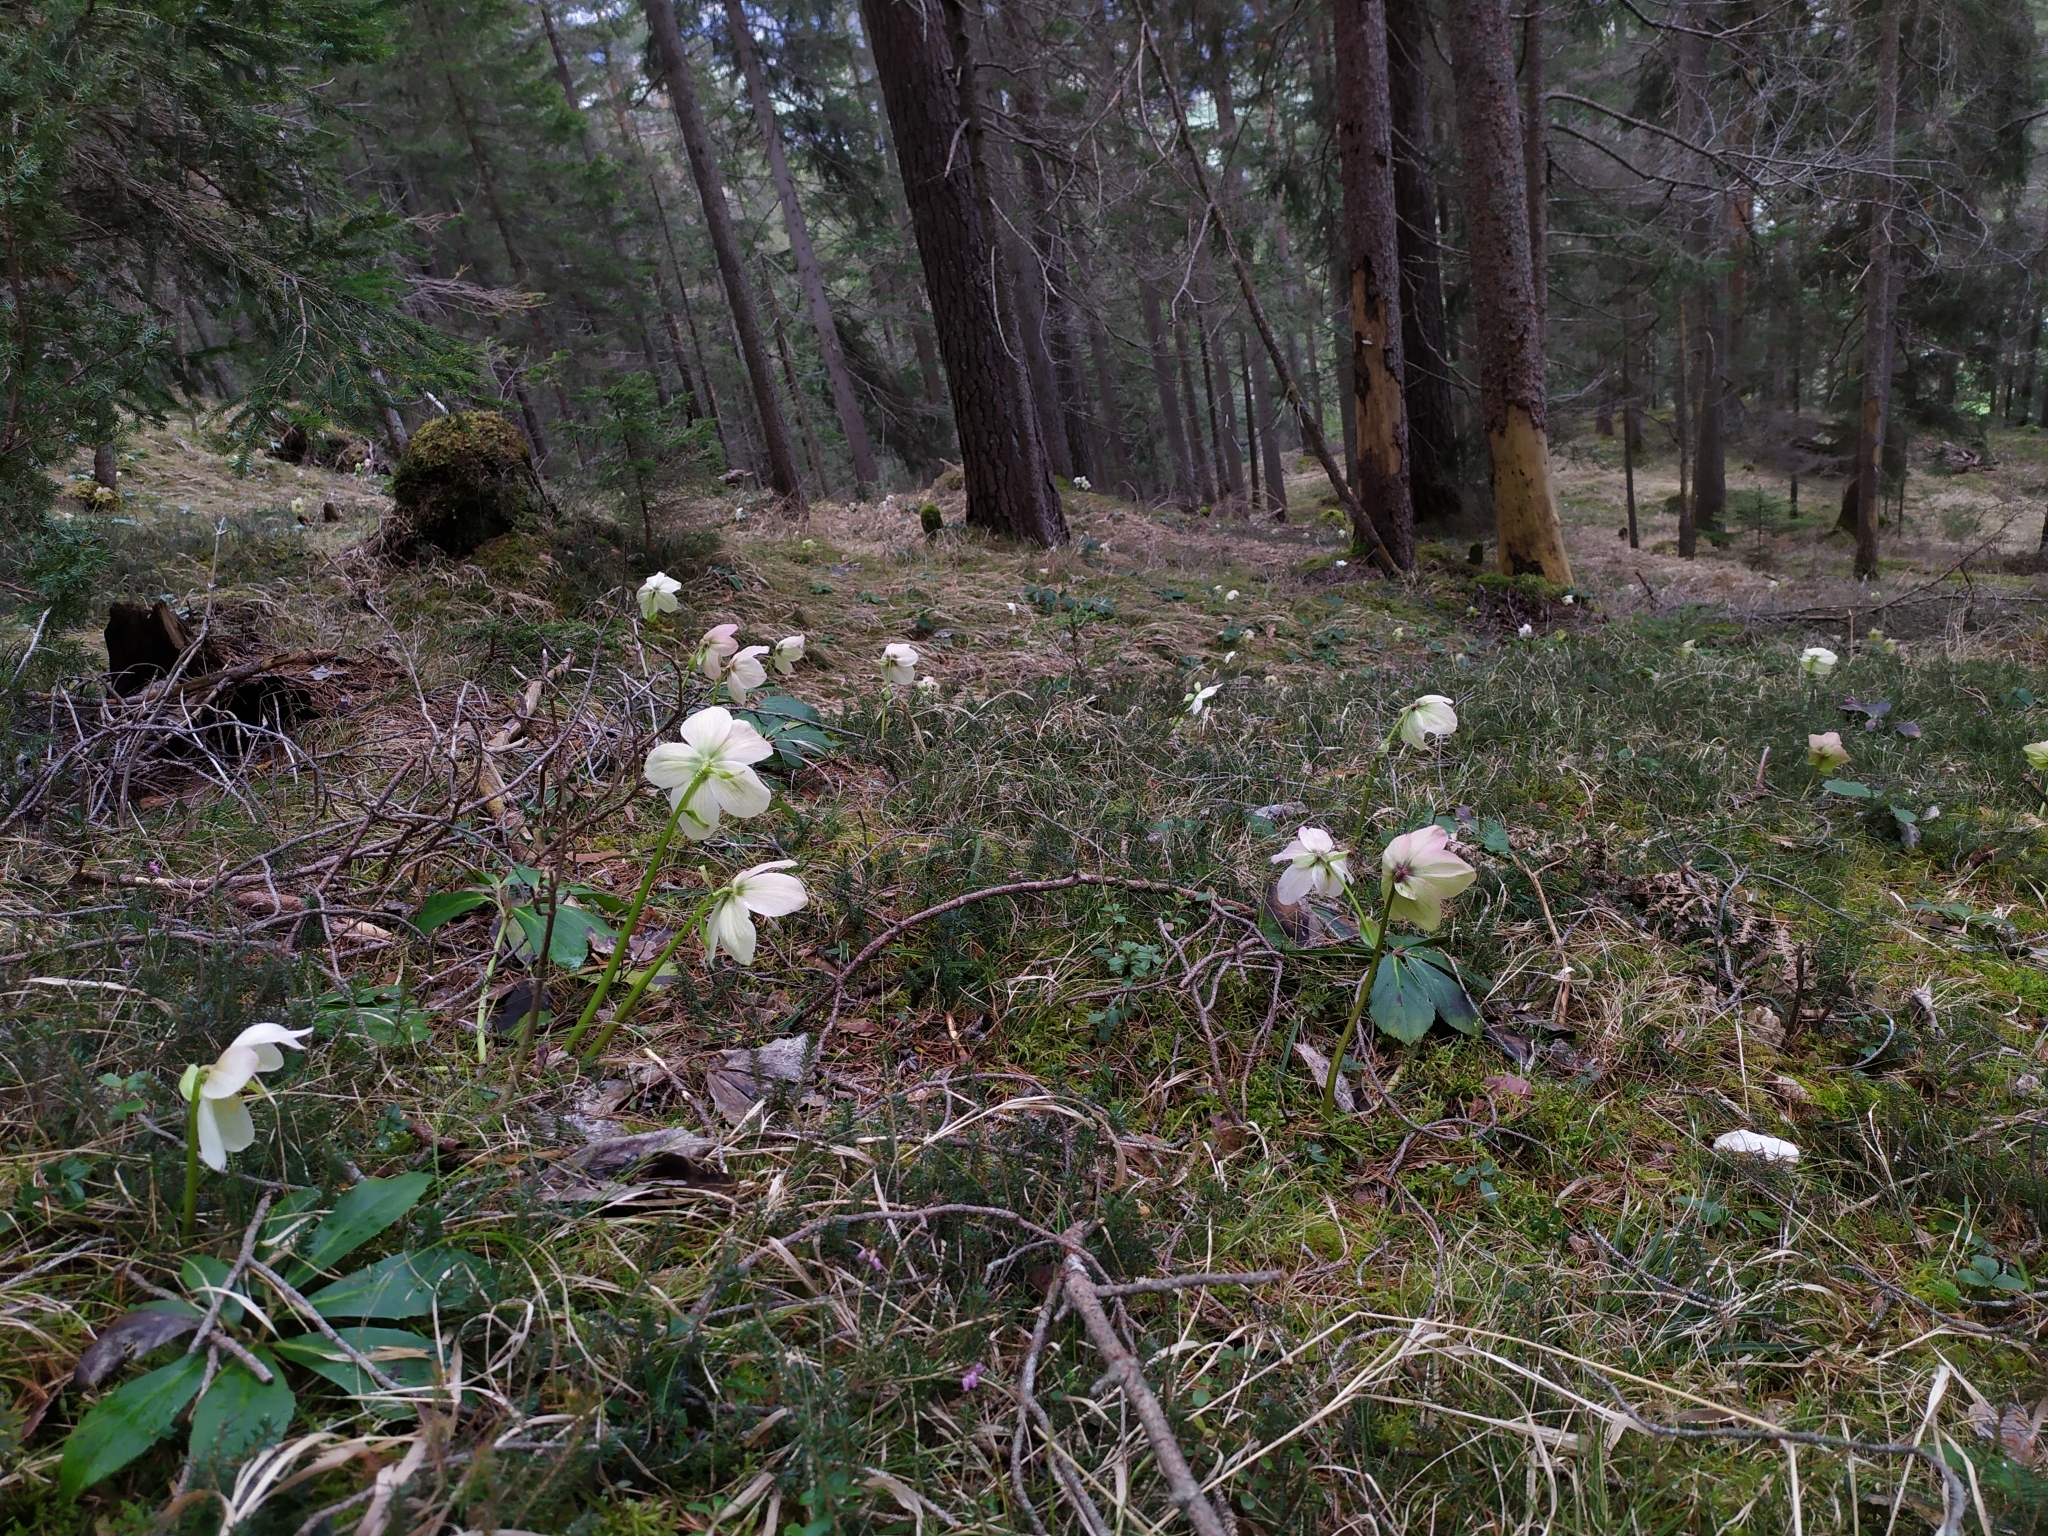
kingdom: Plantae
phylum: Tracheophyta
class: Magnoliopsida
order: Ranunculales
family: Ranunculaceae
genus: Helleborus
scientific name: Helleborus niger
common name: Black hellebore
